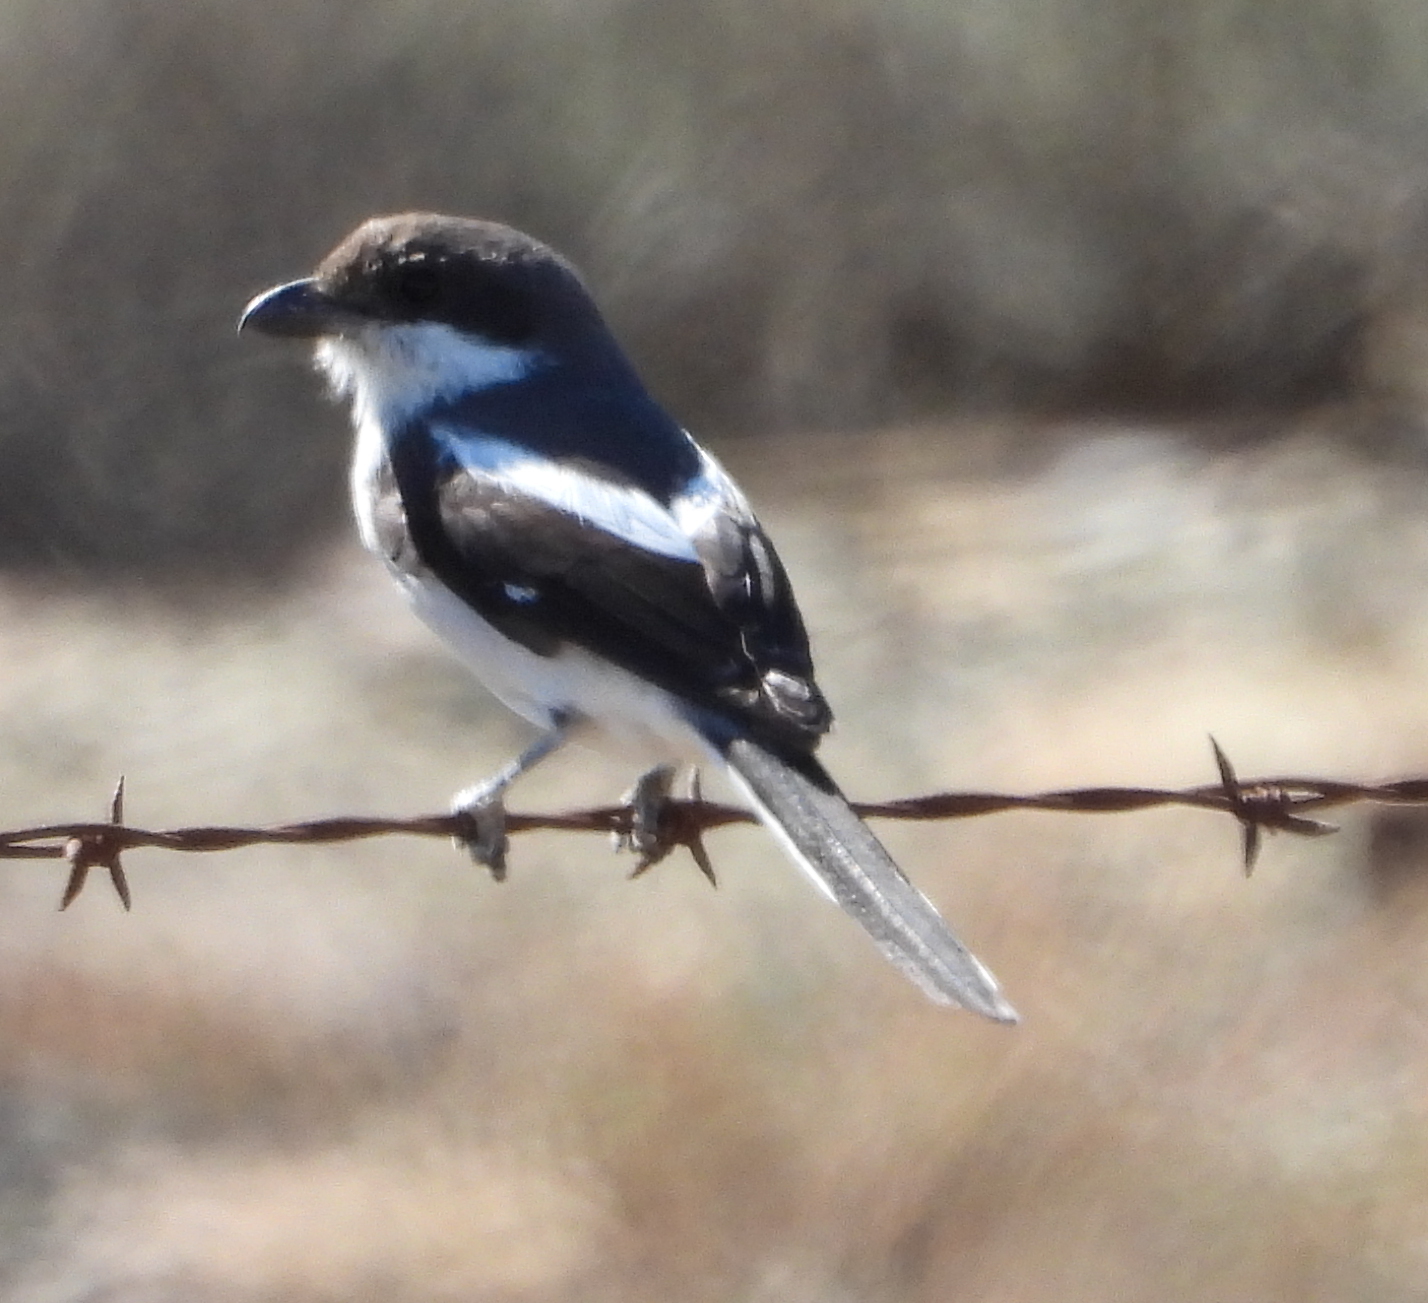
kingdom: Animalia
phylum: Chordata
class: Aves
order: Passeriformes
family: Laniidae
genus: Lanius
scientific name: Lanius collaris
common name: Southern fiscal
